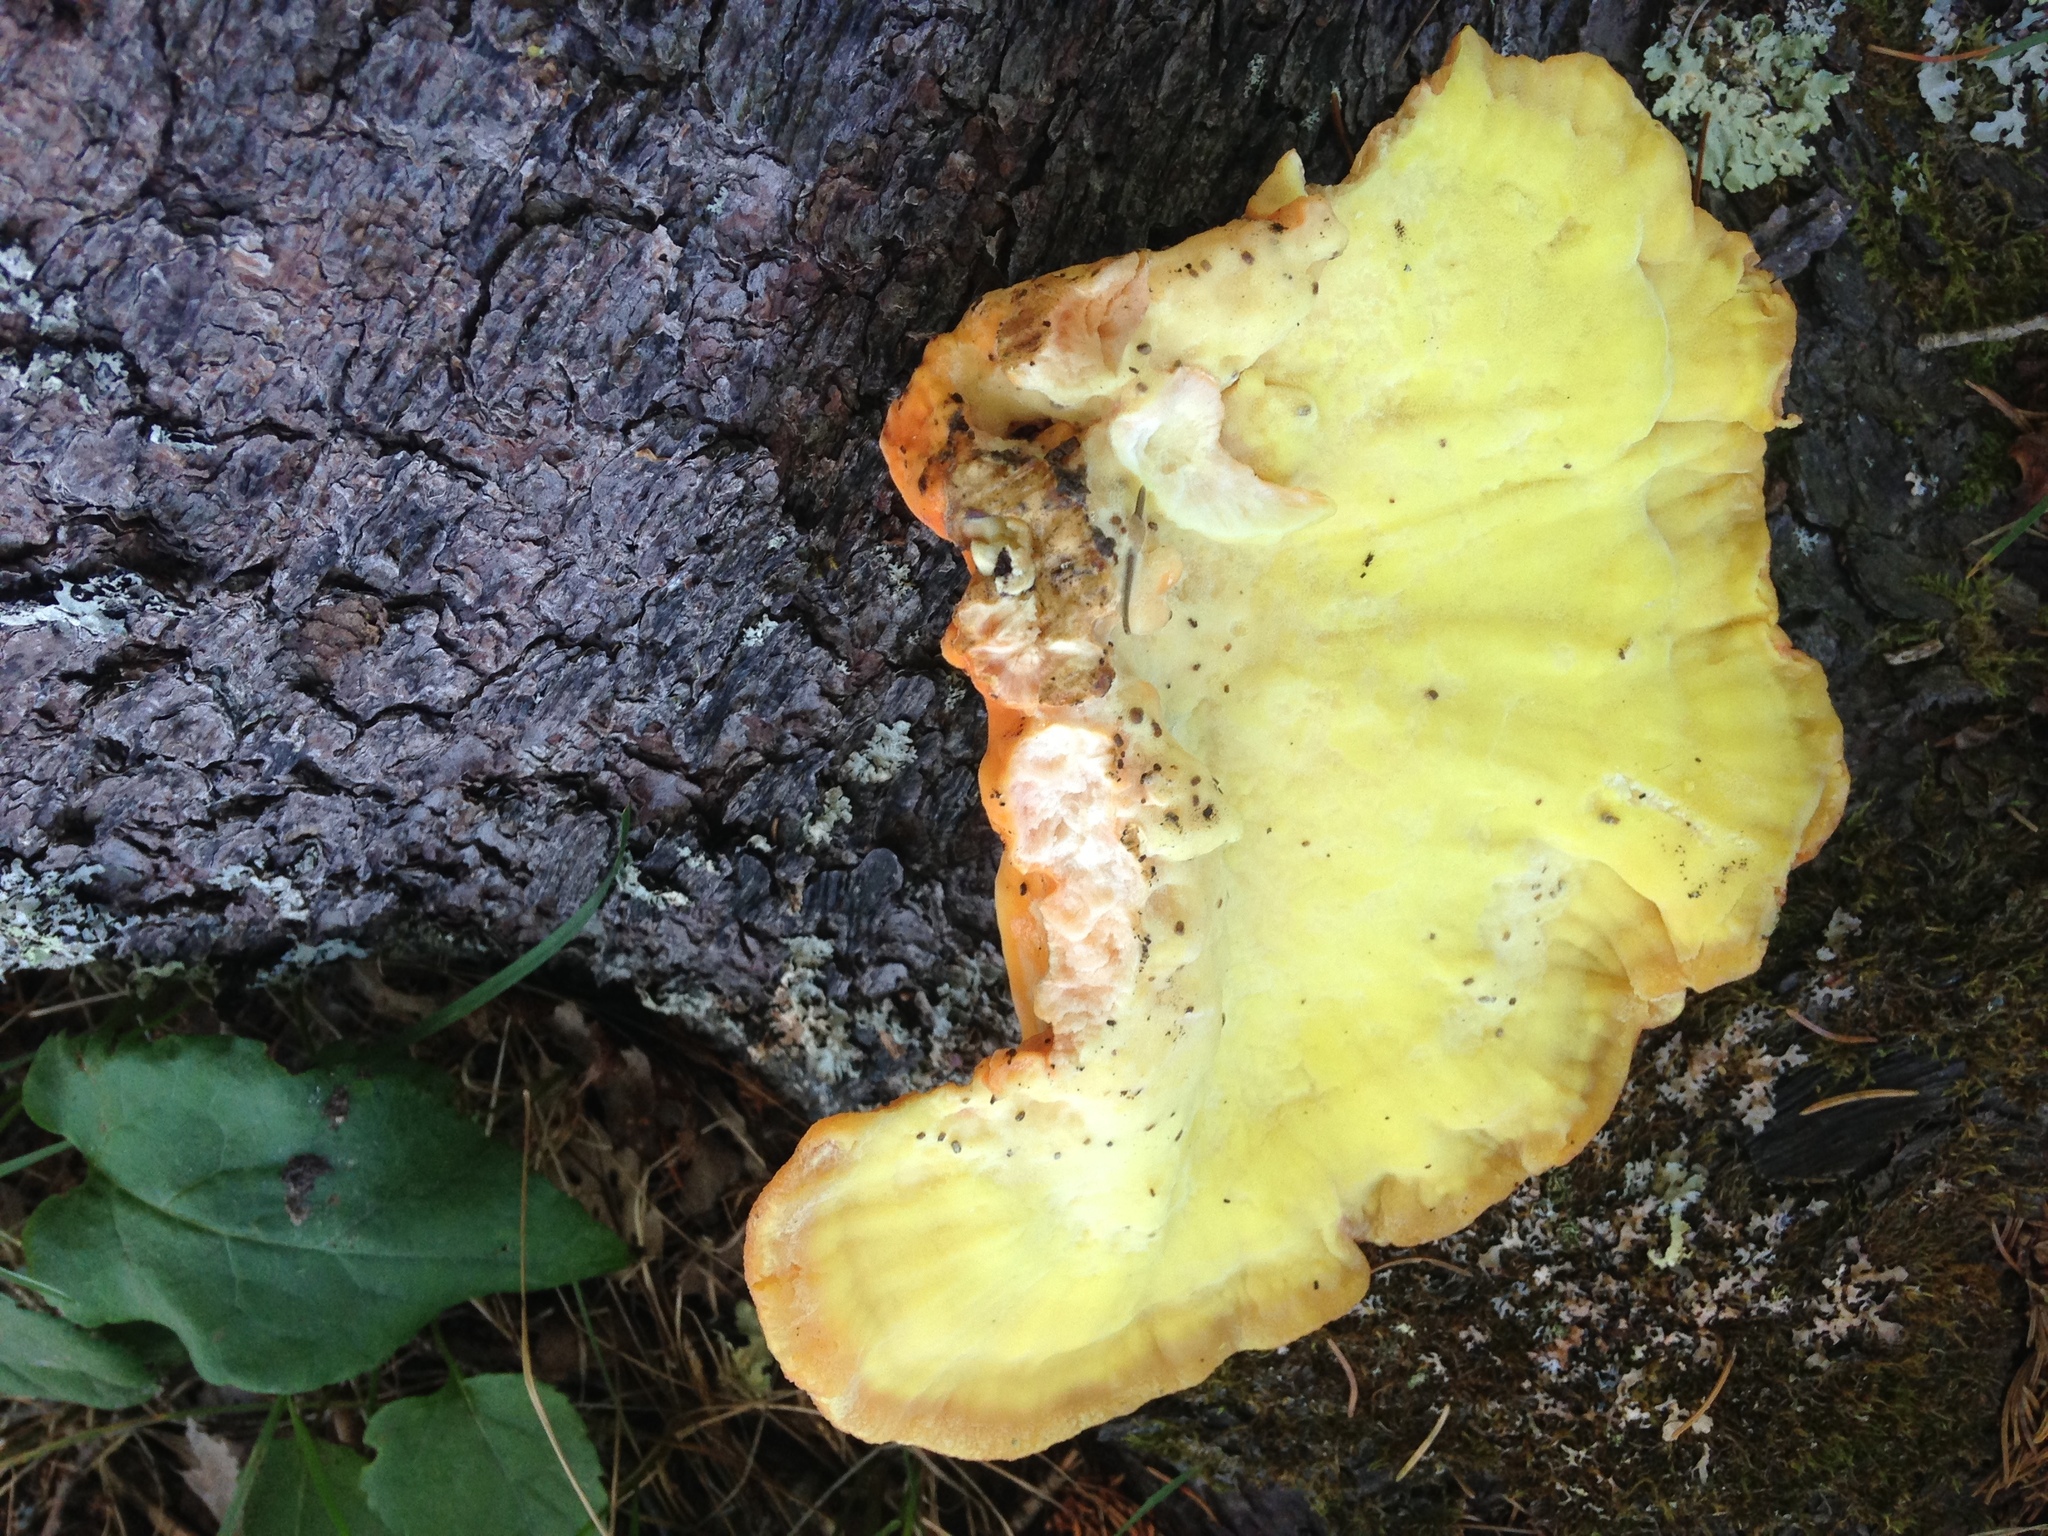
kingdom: Fungi
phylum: Basidiomycota
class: Agaricomycetes
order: Polyporales
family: Laetiporaceae
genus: Laetiporus
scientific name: Laetiporus sulphureus
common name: Chicken of the woods
